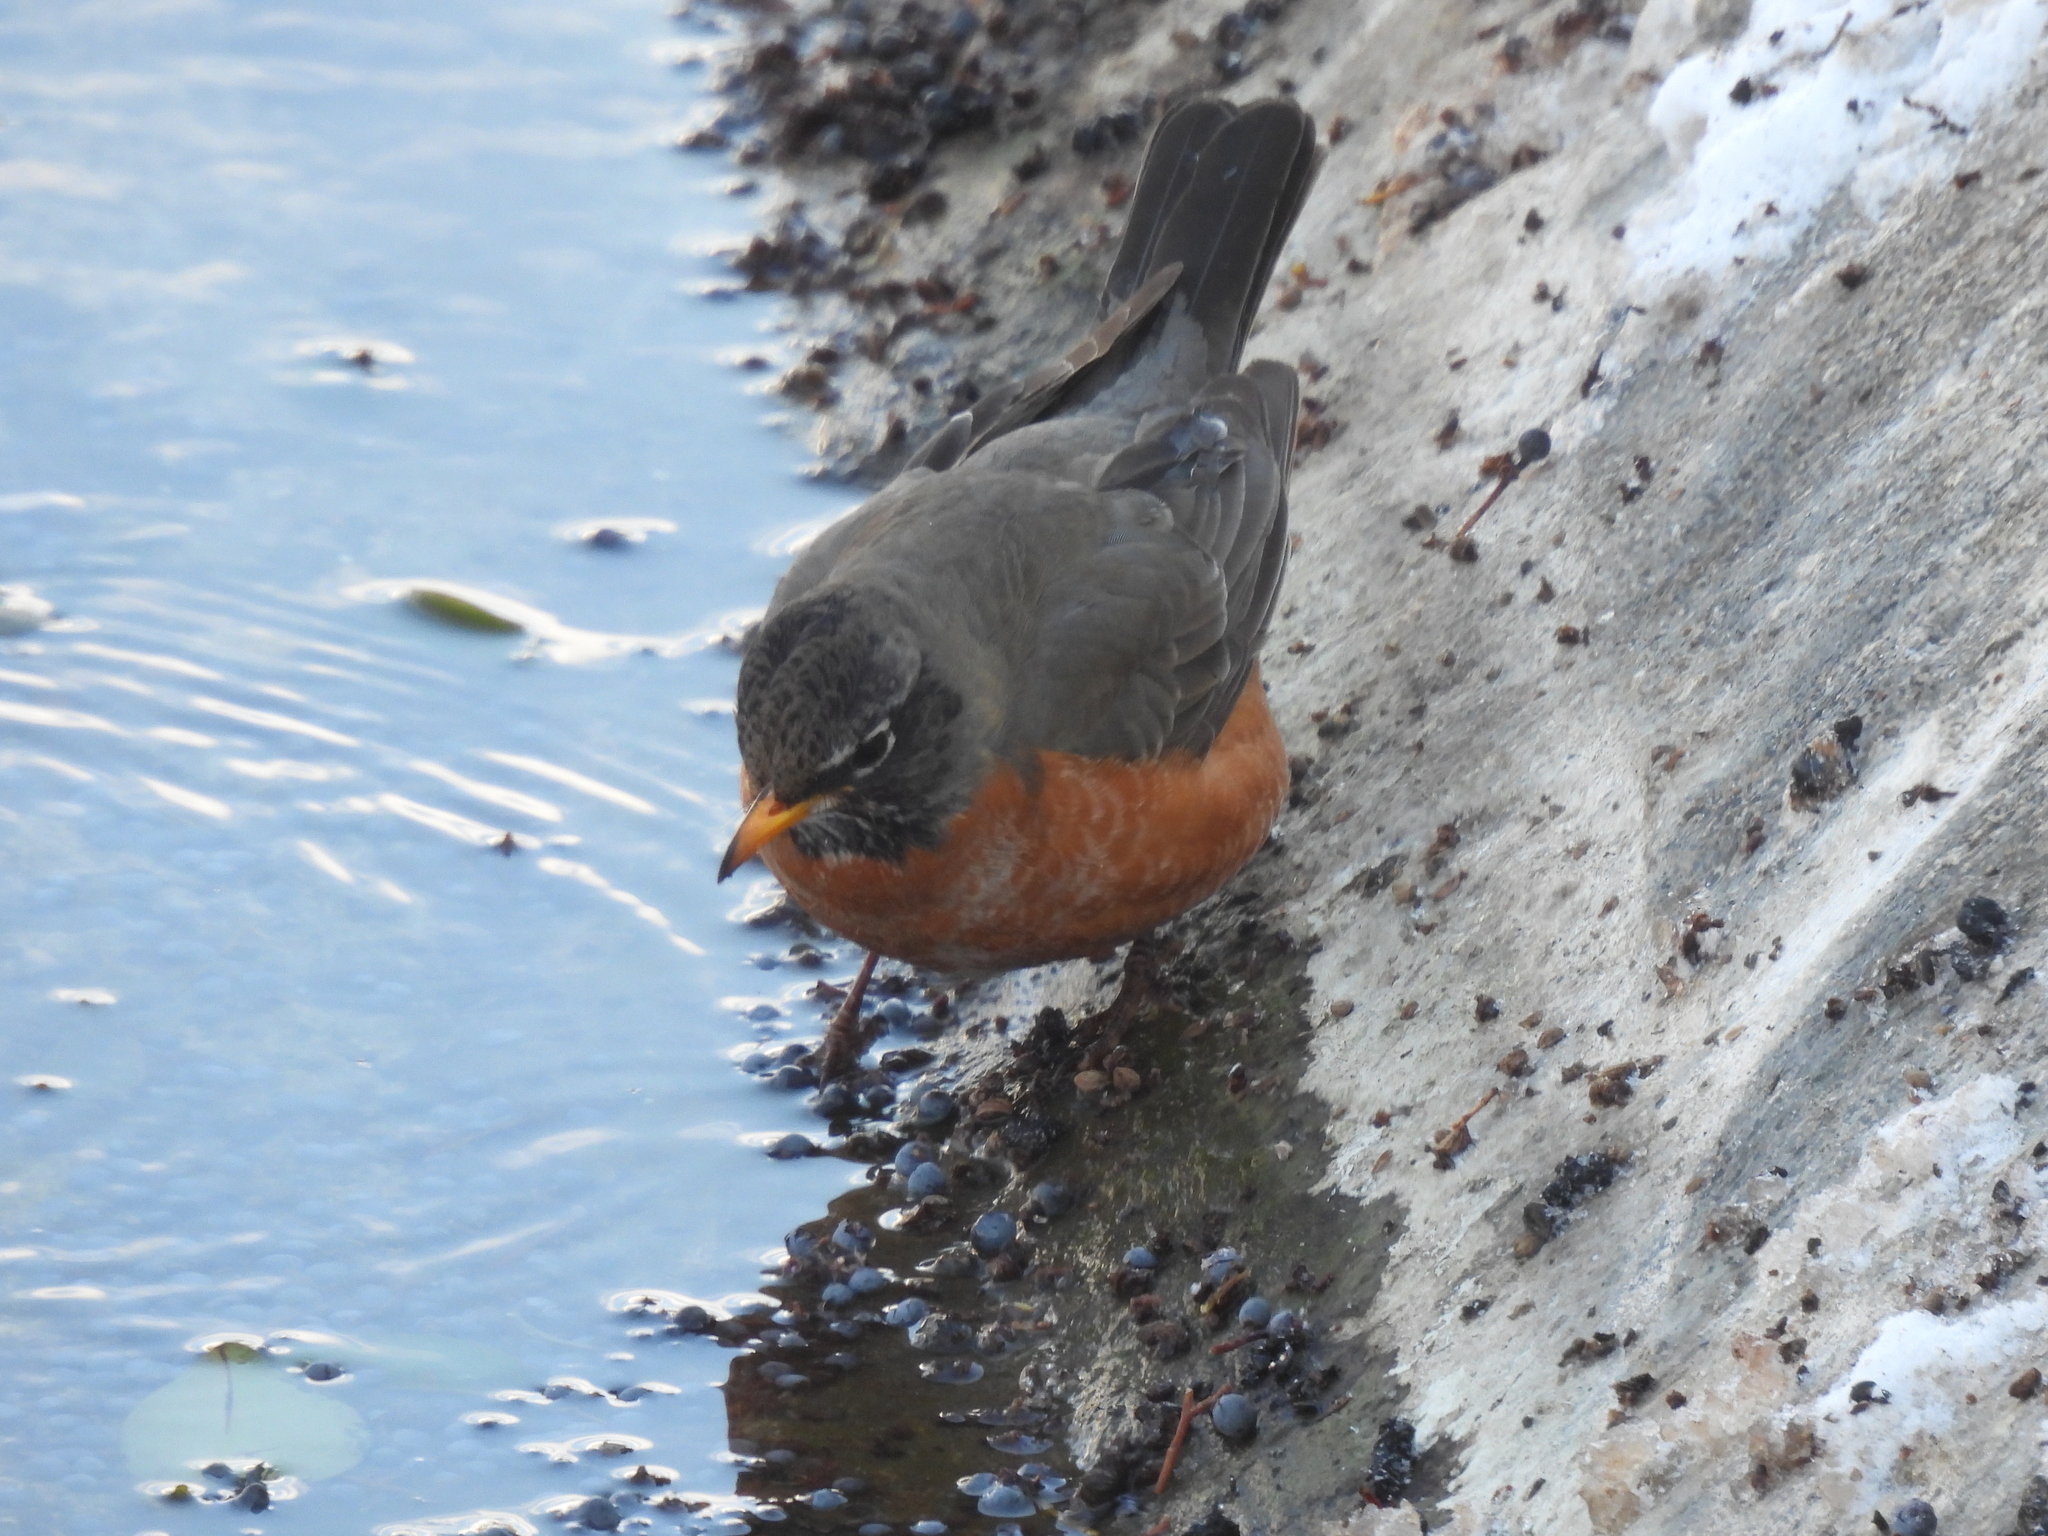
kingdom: Animalia
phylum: Chordata
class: Aves
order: Passeriformes
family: Turdidae
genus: Turdus
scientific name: Turdus migratorius
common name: American robin
